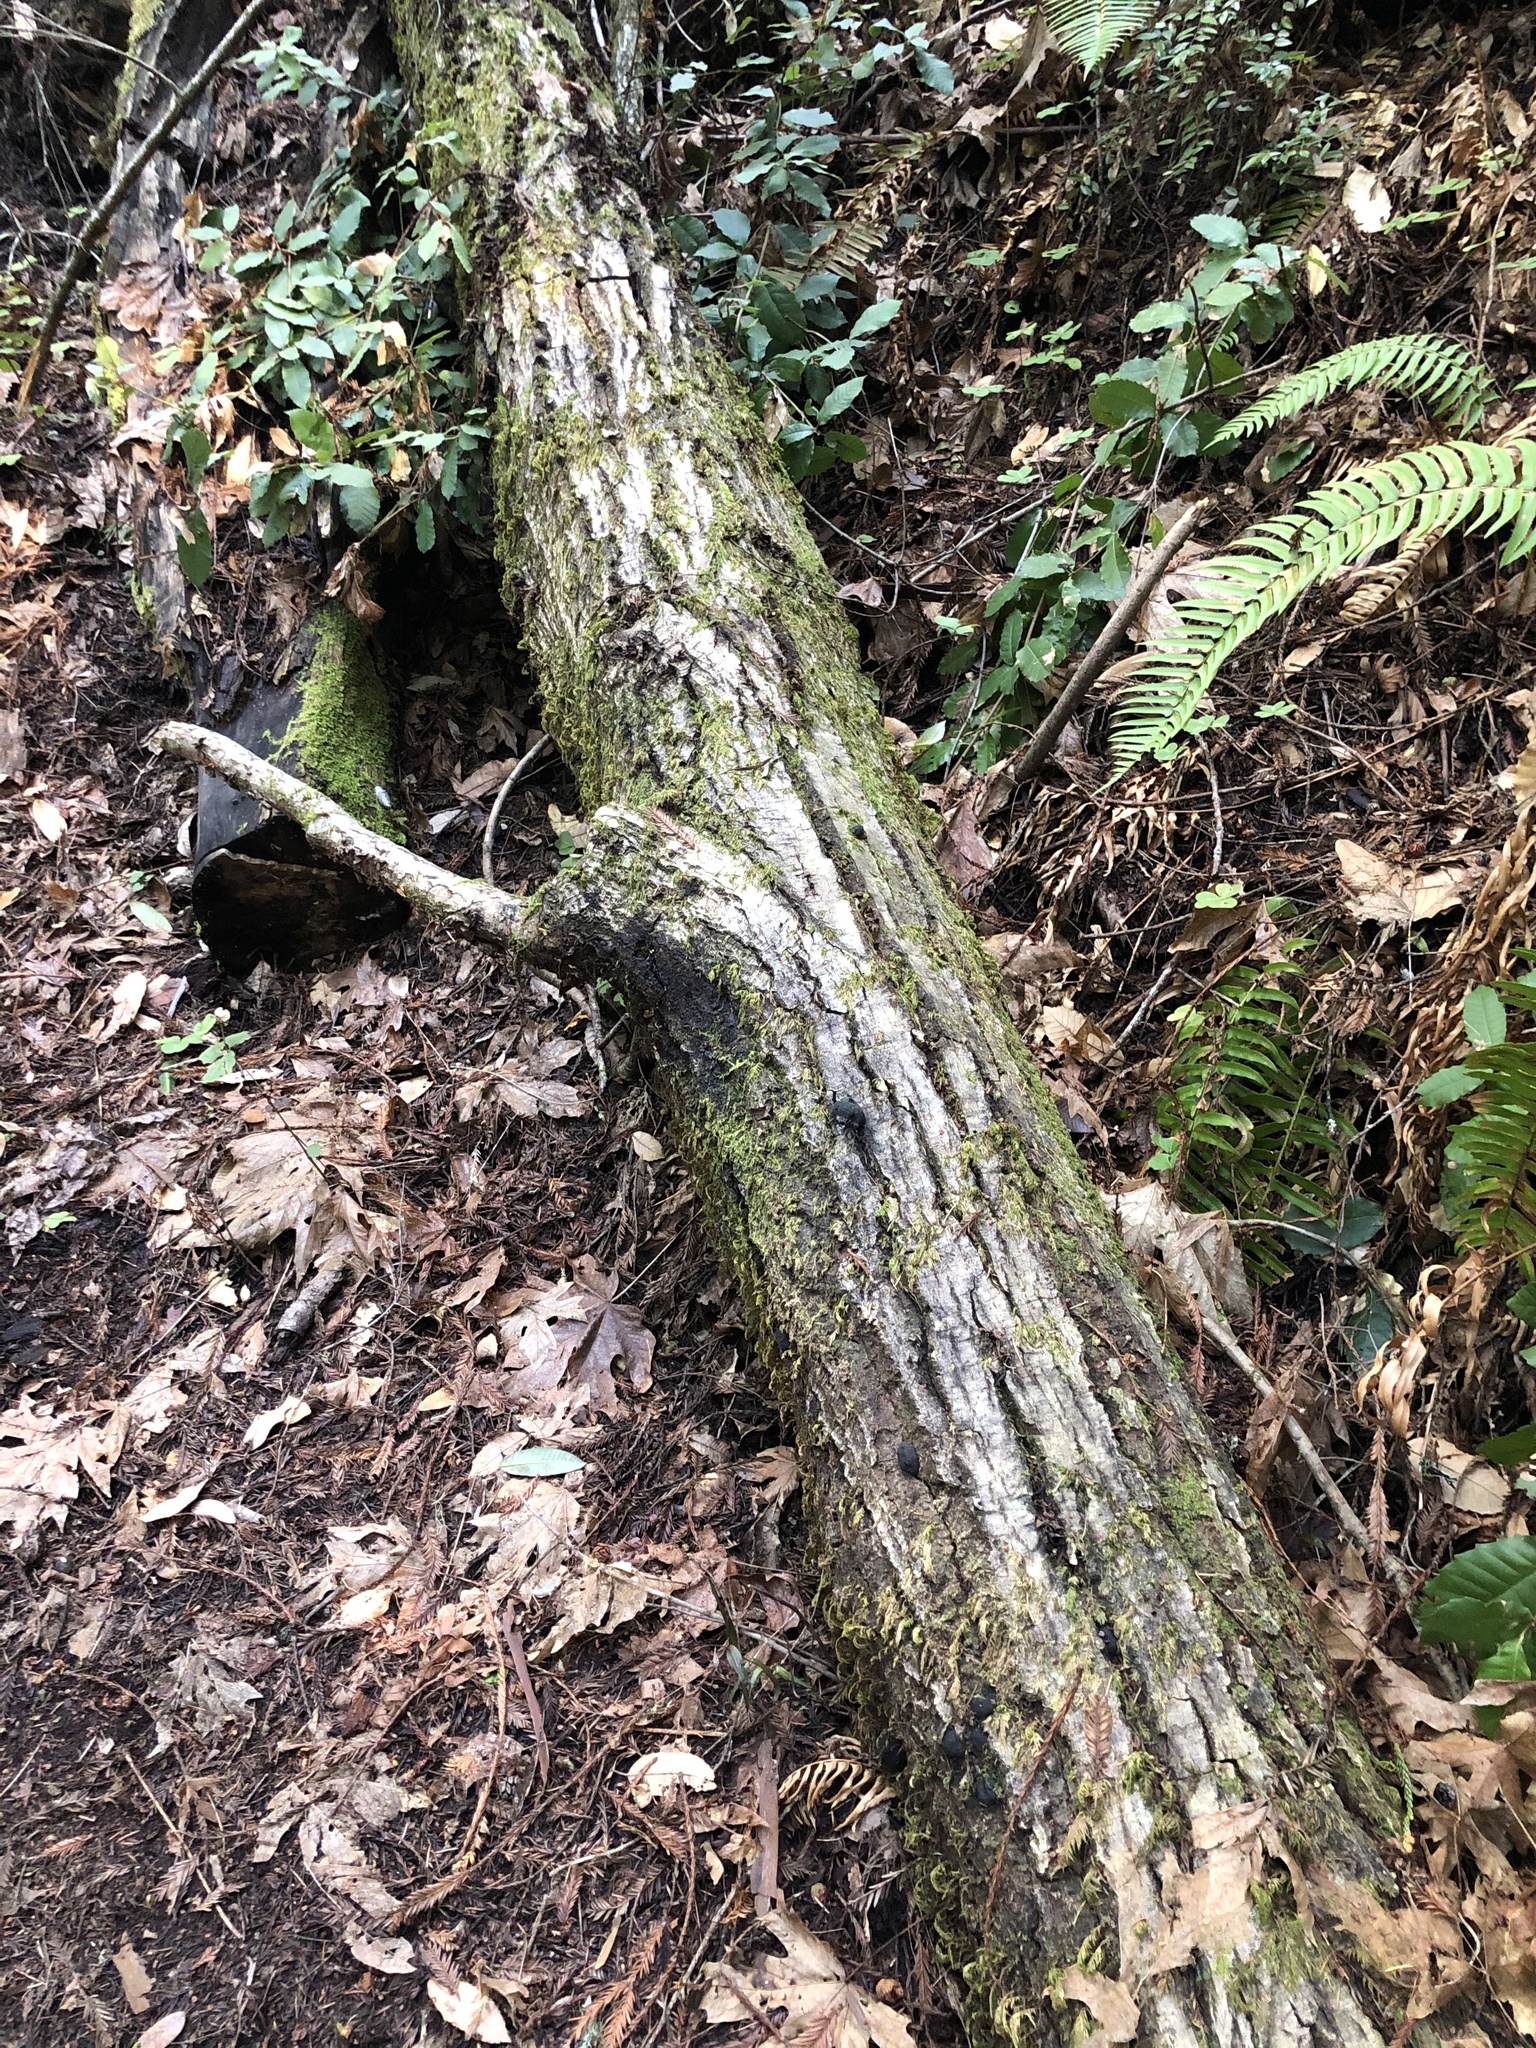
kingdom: Fungi
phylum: Ascomycota
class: Sordariomycetes
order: Xylariales
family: Hypoxylaceae
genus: Annulohypoxylon
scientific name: Annulohypoxylon thouarsianum
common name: Cramp balls
